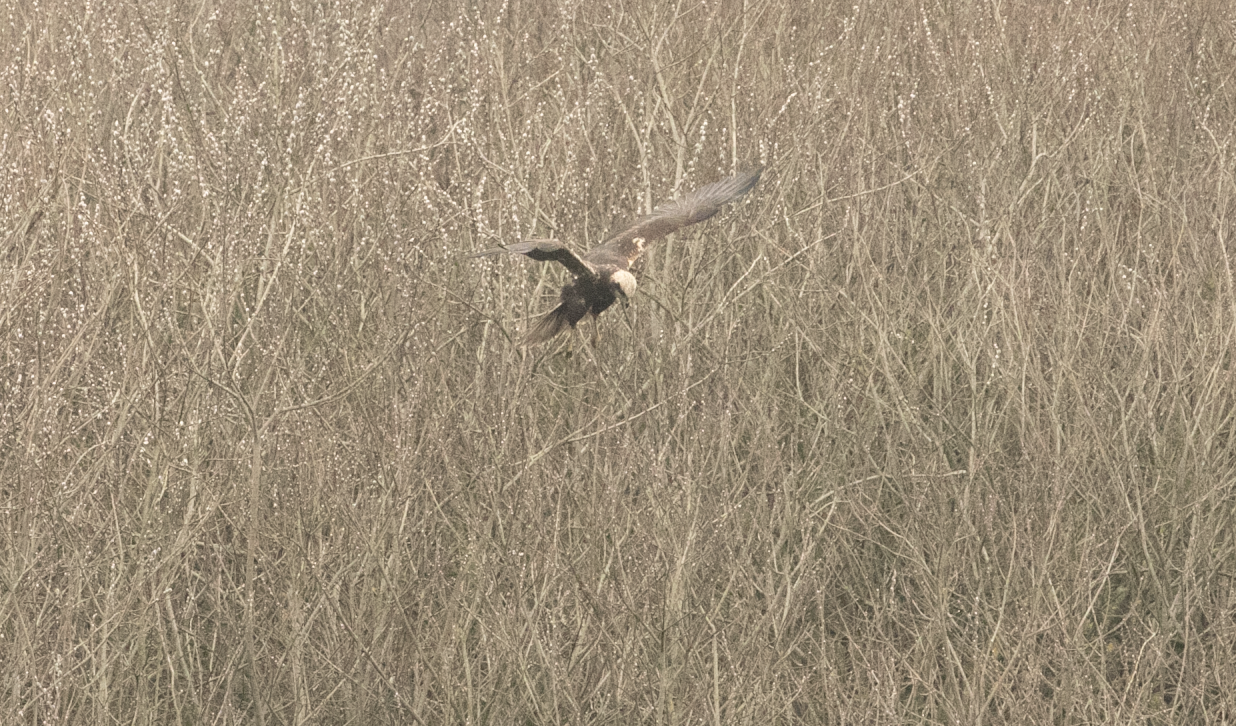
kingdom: Animalia
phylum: Chordata
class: Aves
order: Accipitriformes
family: Accipitridae
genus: Circus
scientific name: Circus aeruginosus
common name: Western marsh harrier
